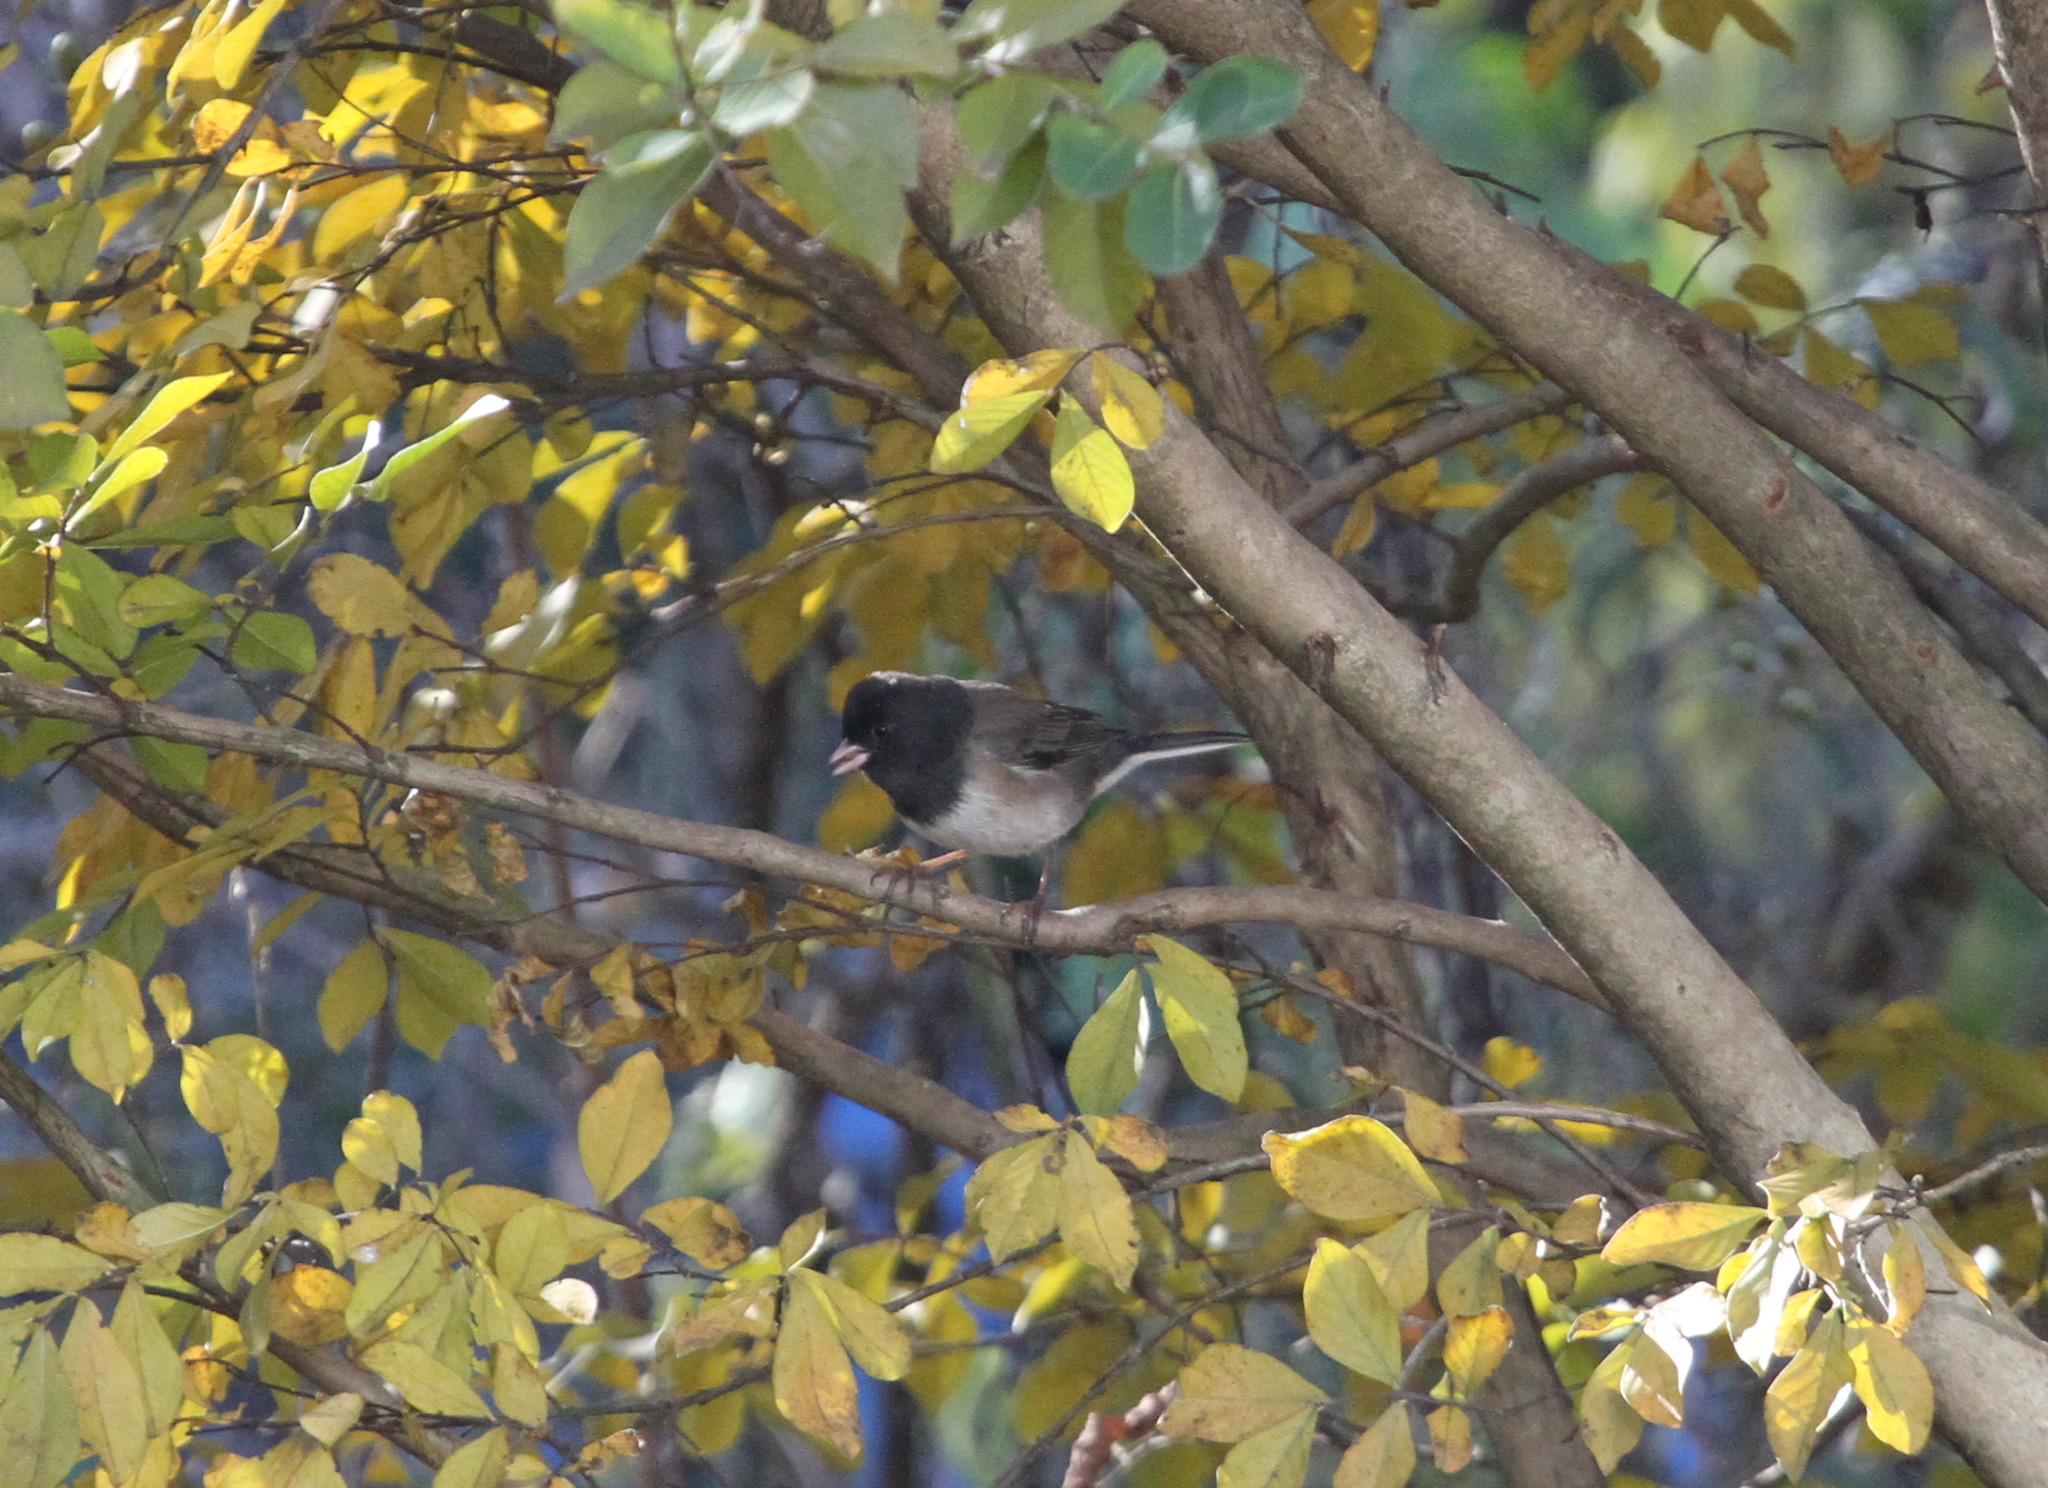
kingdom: Animalia
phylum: Chordata
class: Aves
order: Passeriformes
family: Passerellidae
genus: Junco
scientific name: Junco hyemalis
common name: Dark-eyed junco
